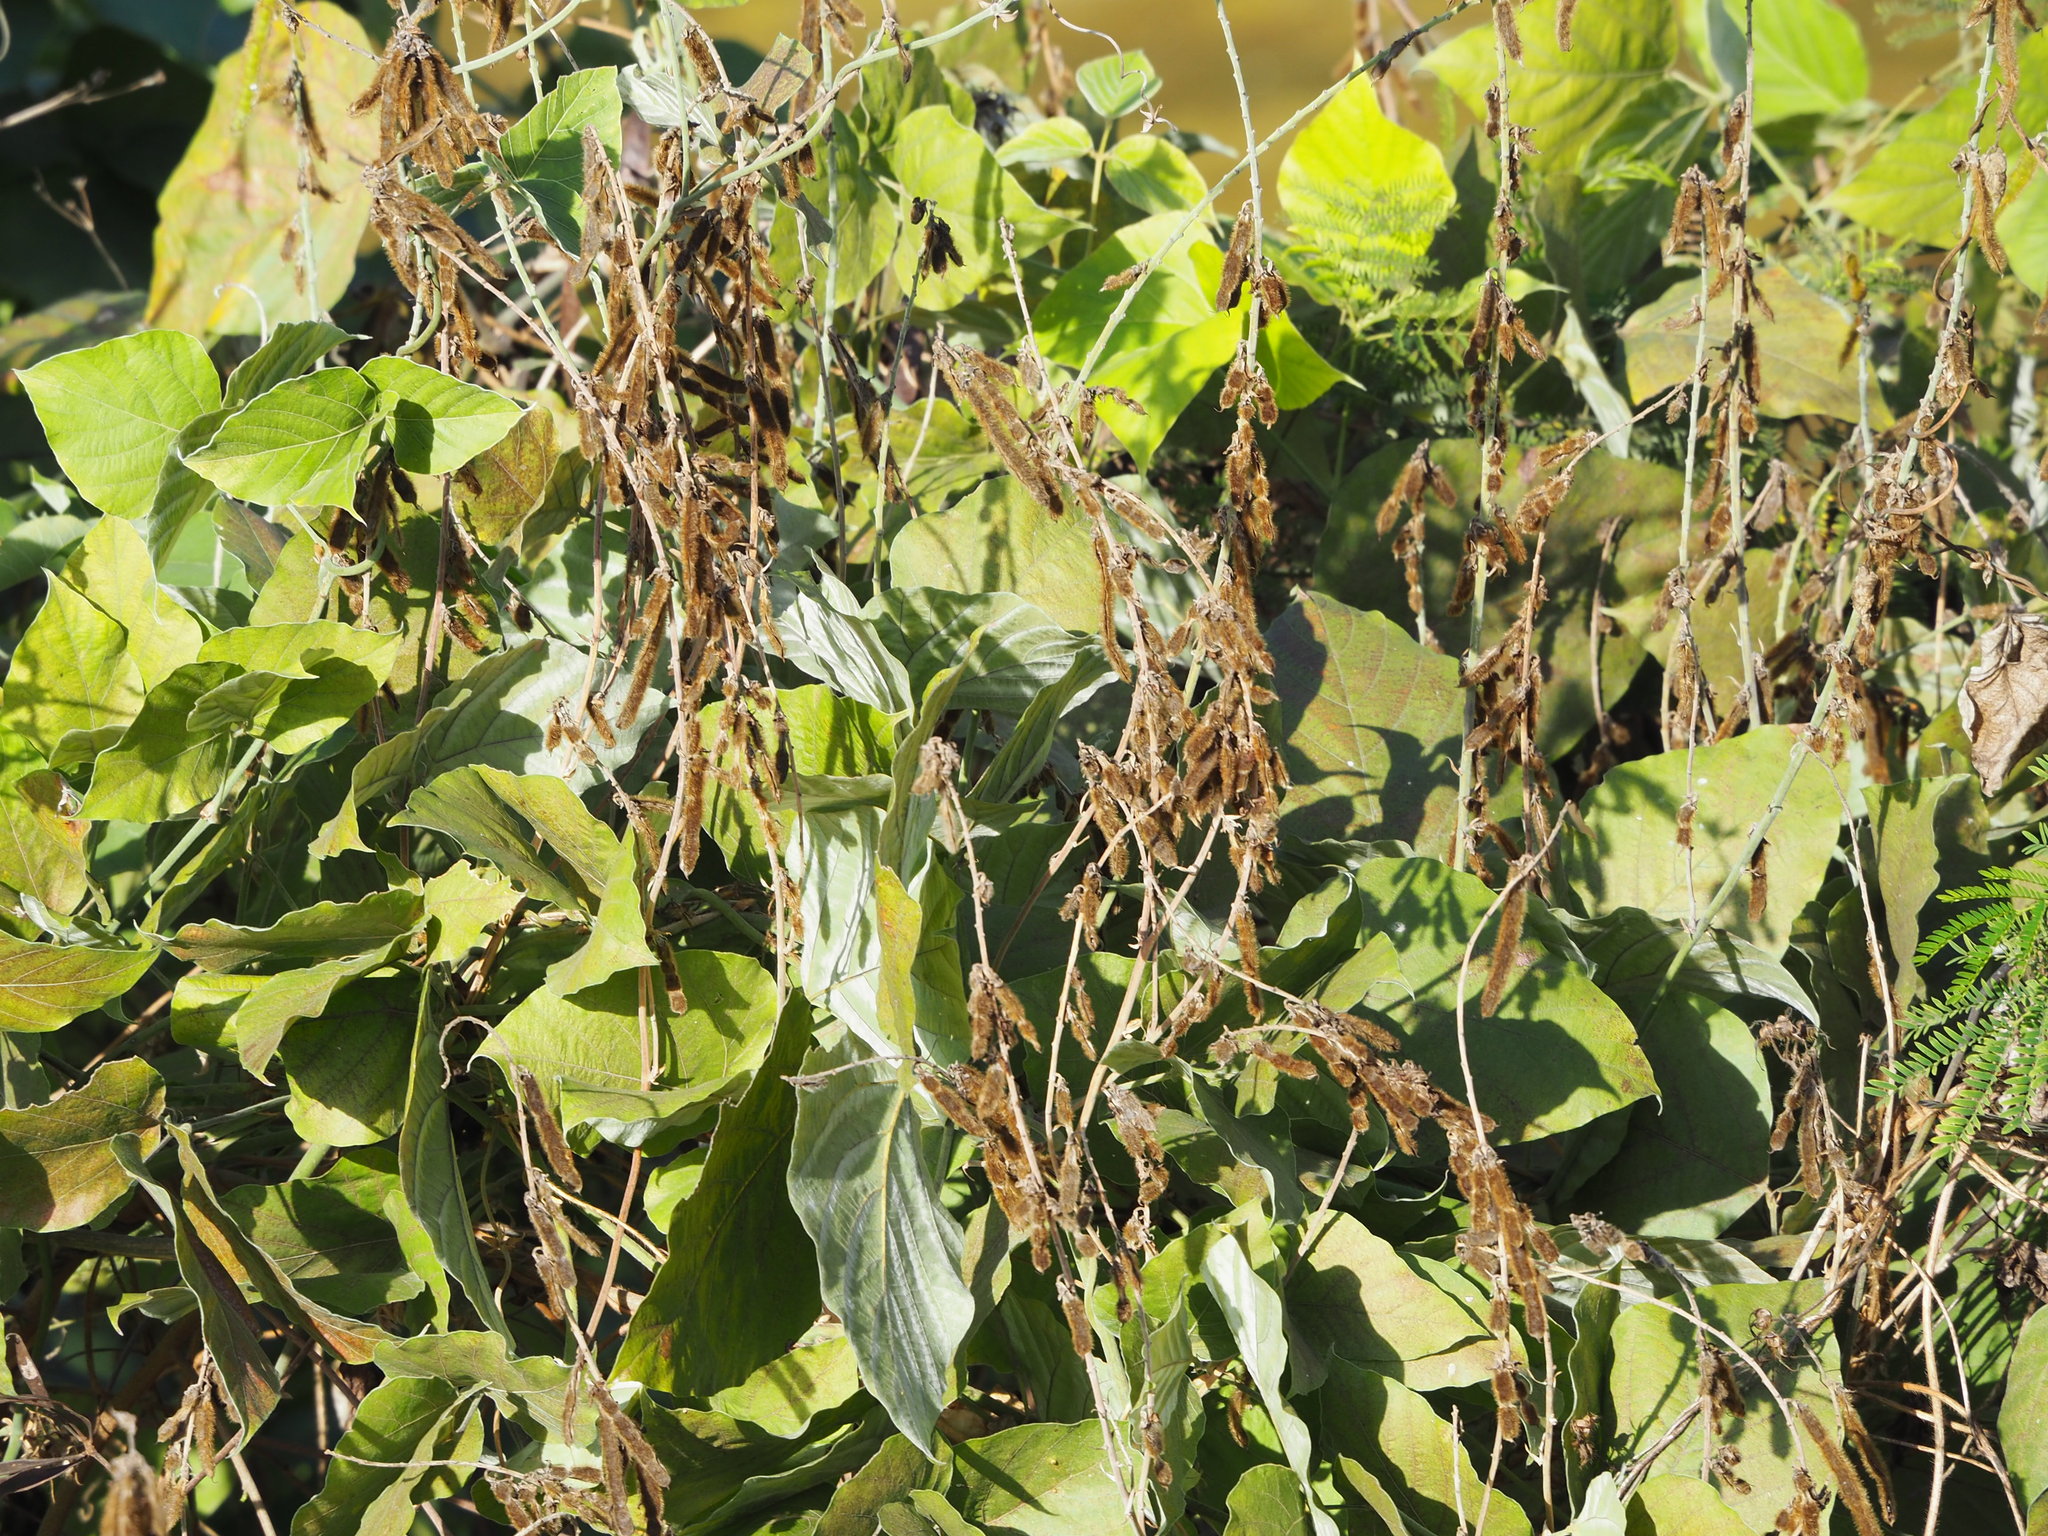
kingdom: Plantae
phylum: Tracheophyta
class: Magnoliopsida
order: Fabales
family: Fabaceae
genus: Pueraria
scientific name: Pueraria montana
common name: Kudzu
